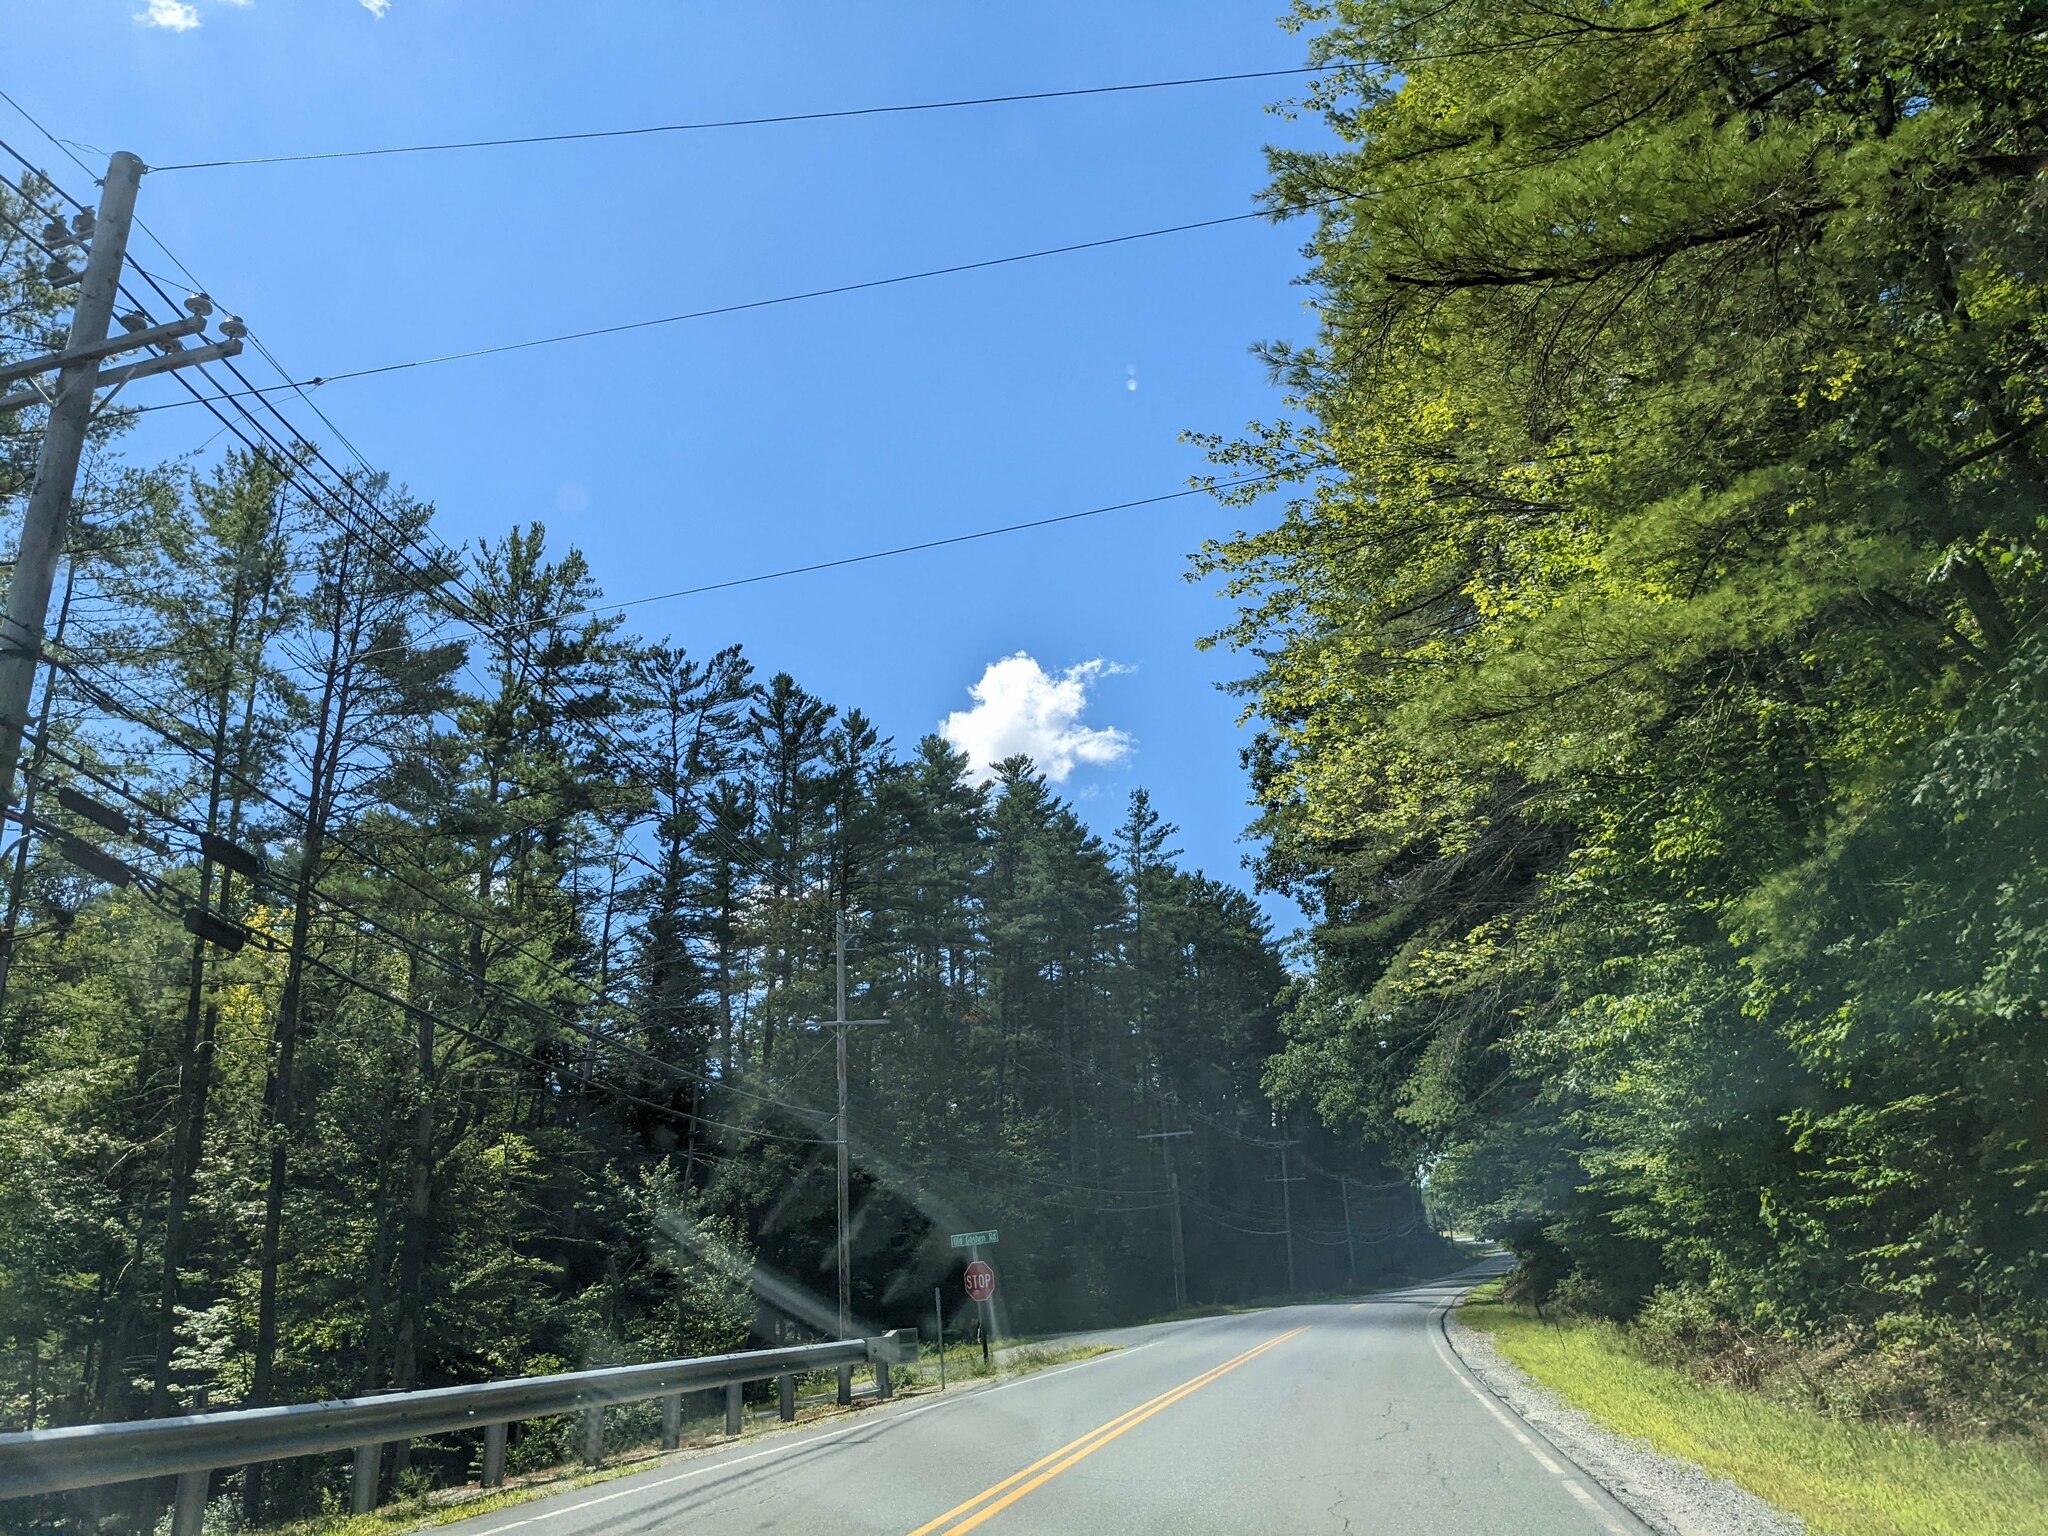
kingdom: Plantae
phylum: Tracheophyta
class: Pinopsida
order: Pinales
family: Pinaceae
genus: Pinus
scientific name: Pinus strobus
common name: Weymouth pine
